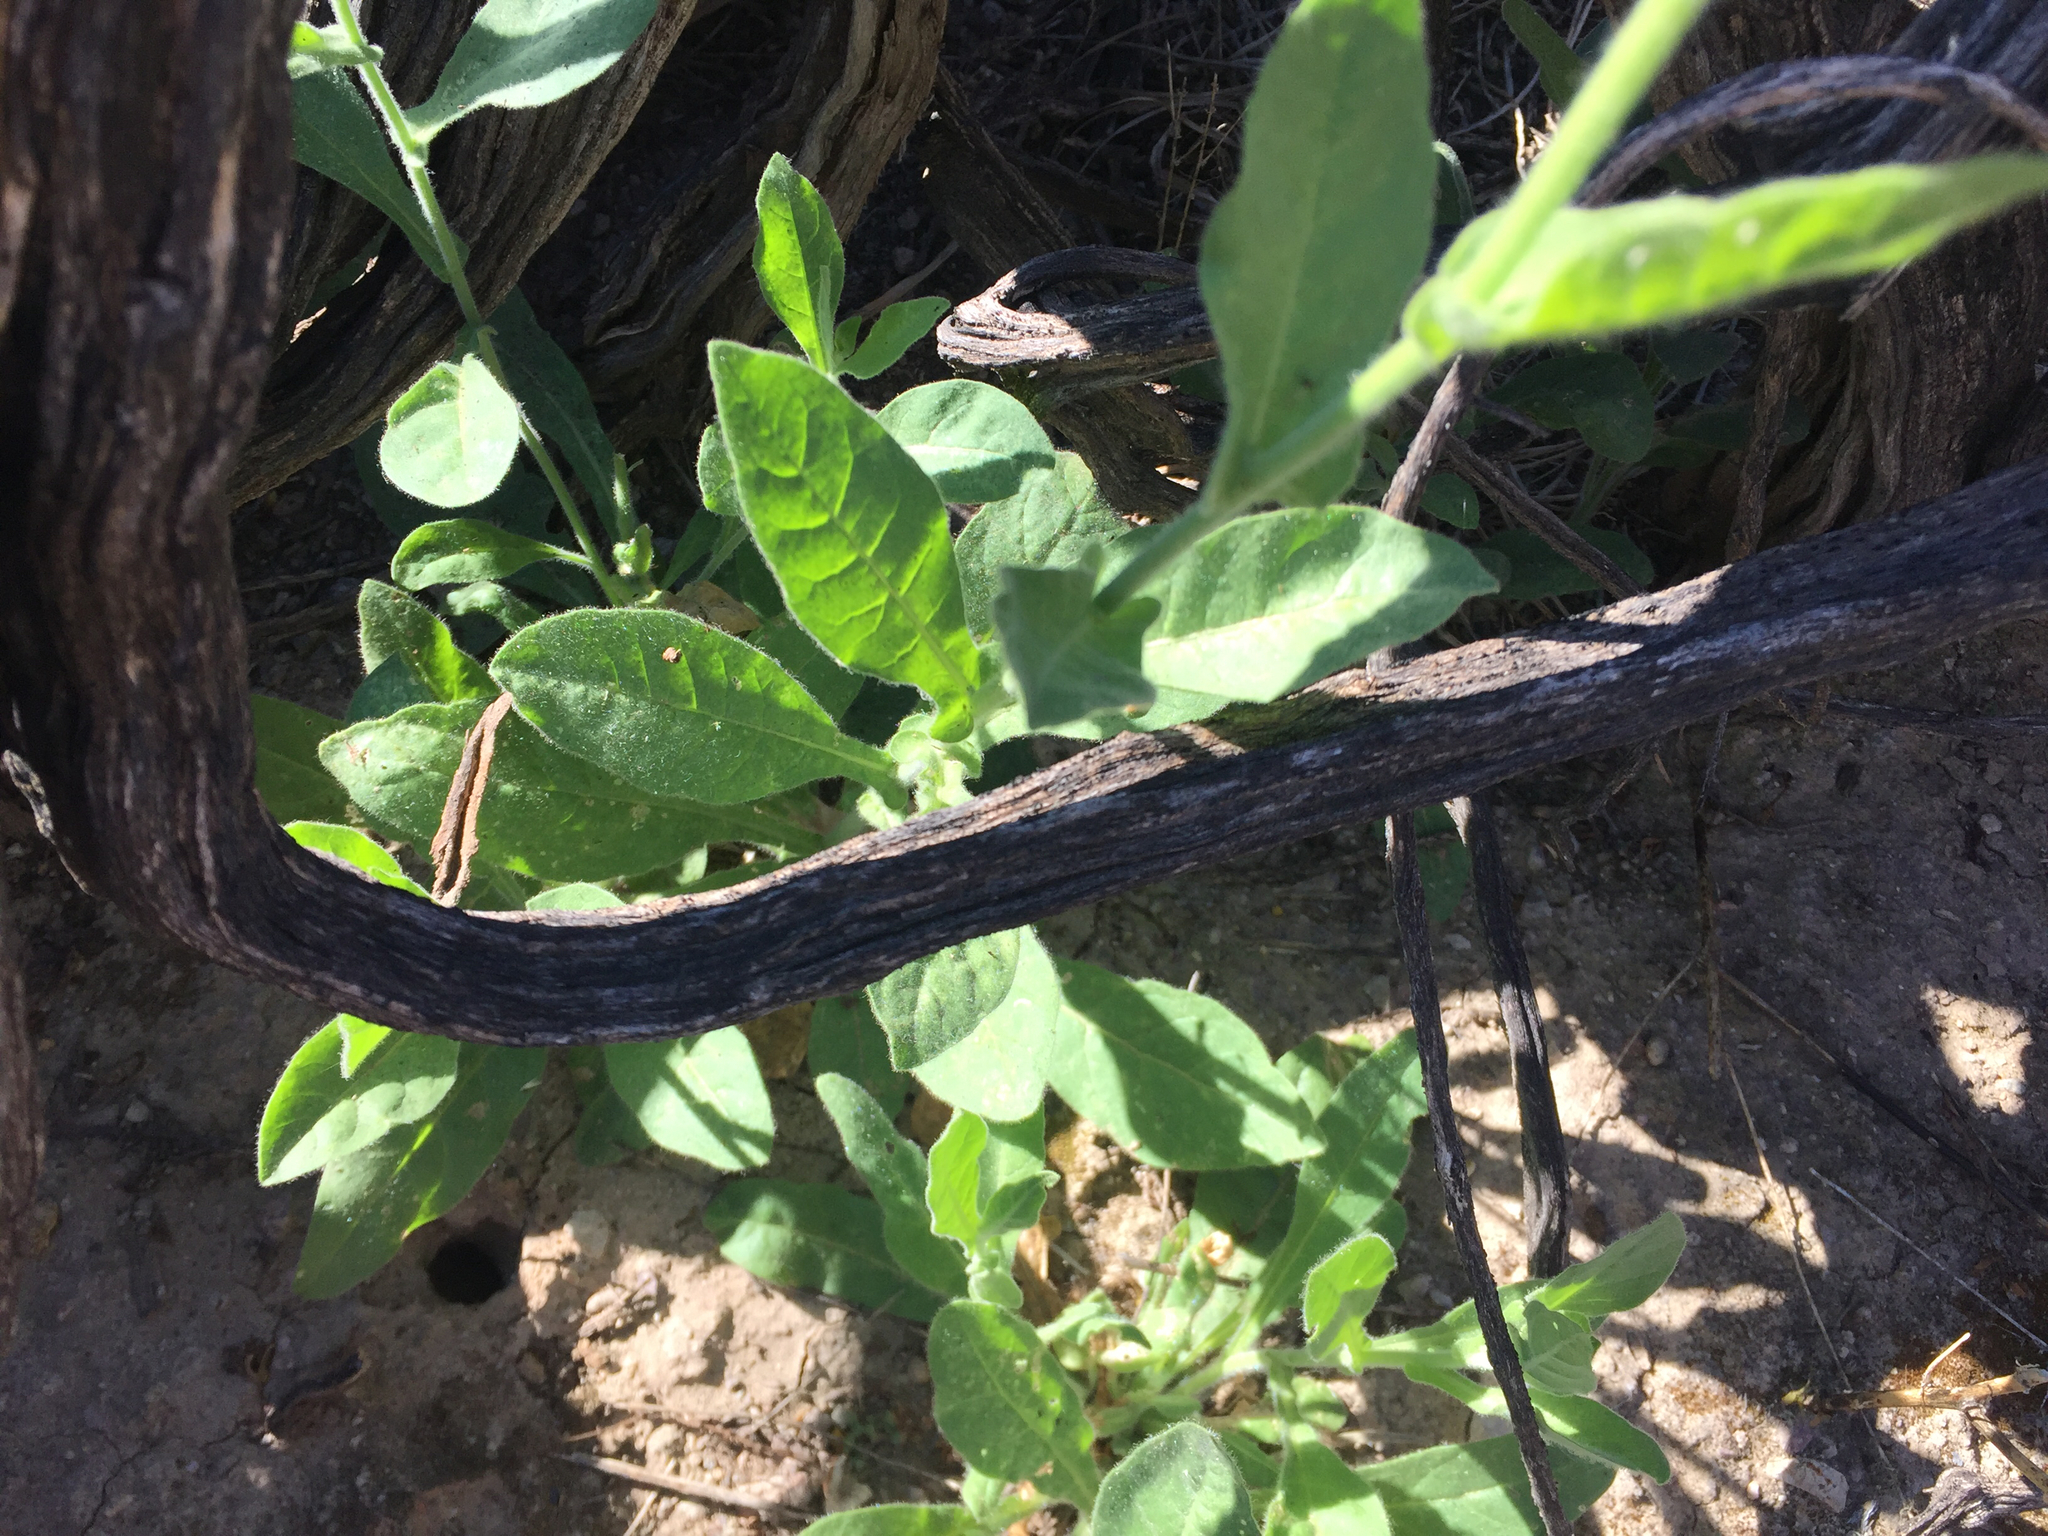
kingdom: Plantae
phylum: Tracheophyta
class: Magnoliopsida
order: Solanales
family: Solanaceae
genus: Nicotiana
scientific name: Nicotiana obtusifolia
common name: Desert tobacco
